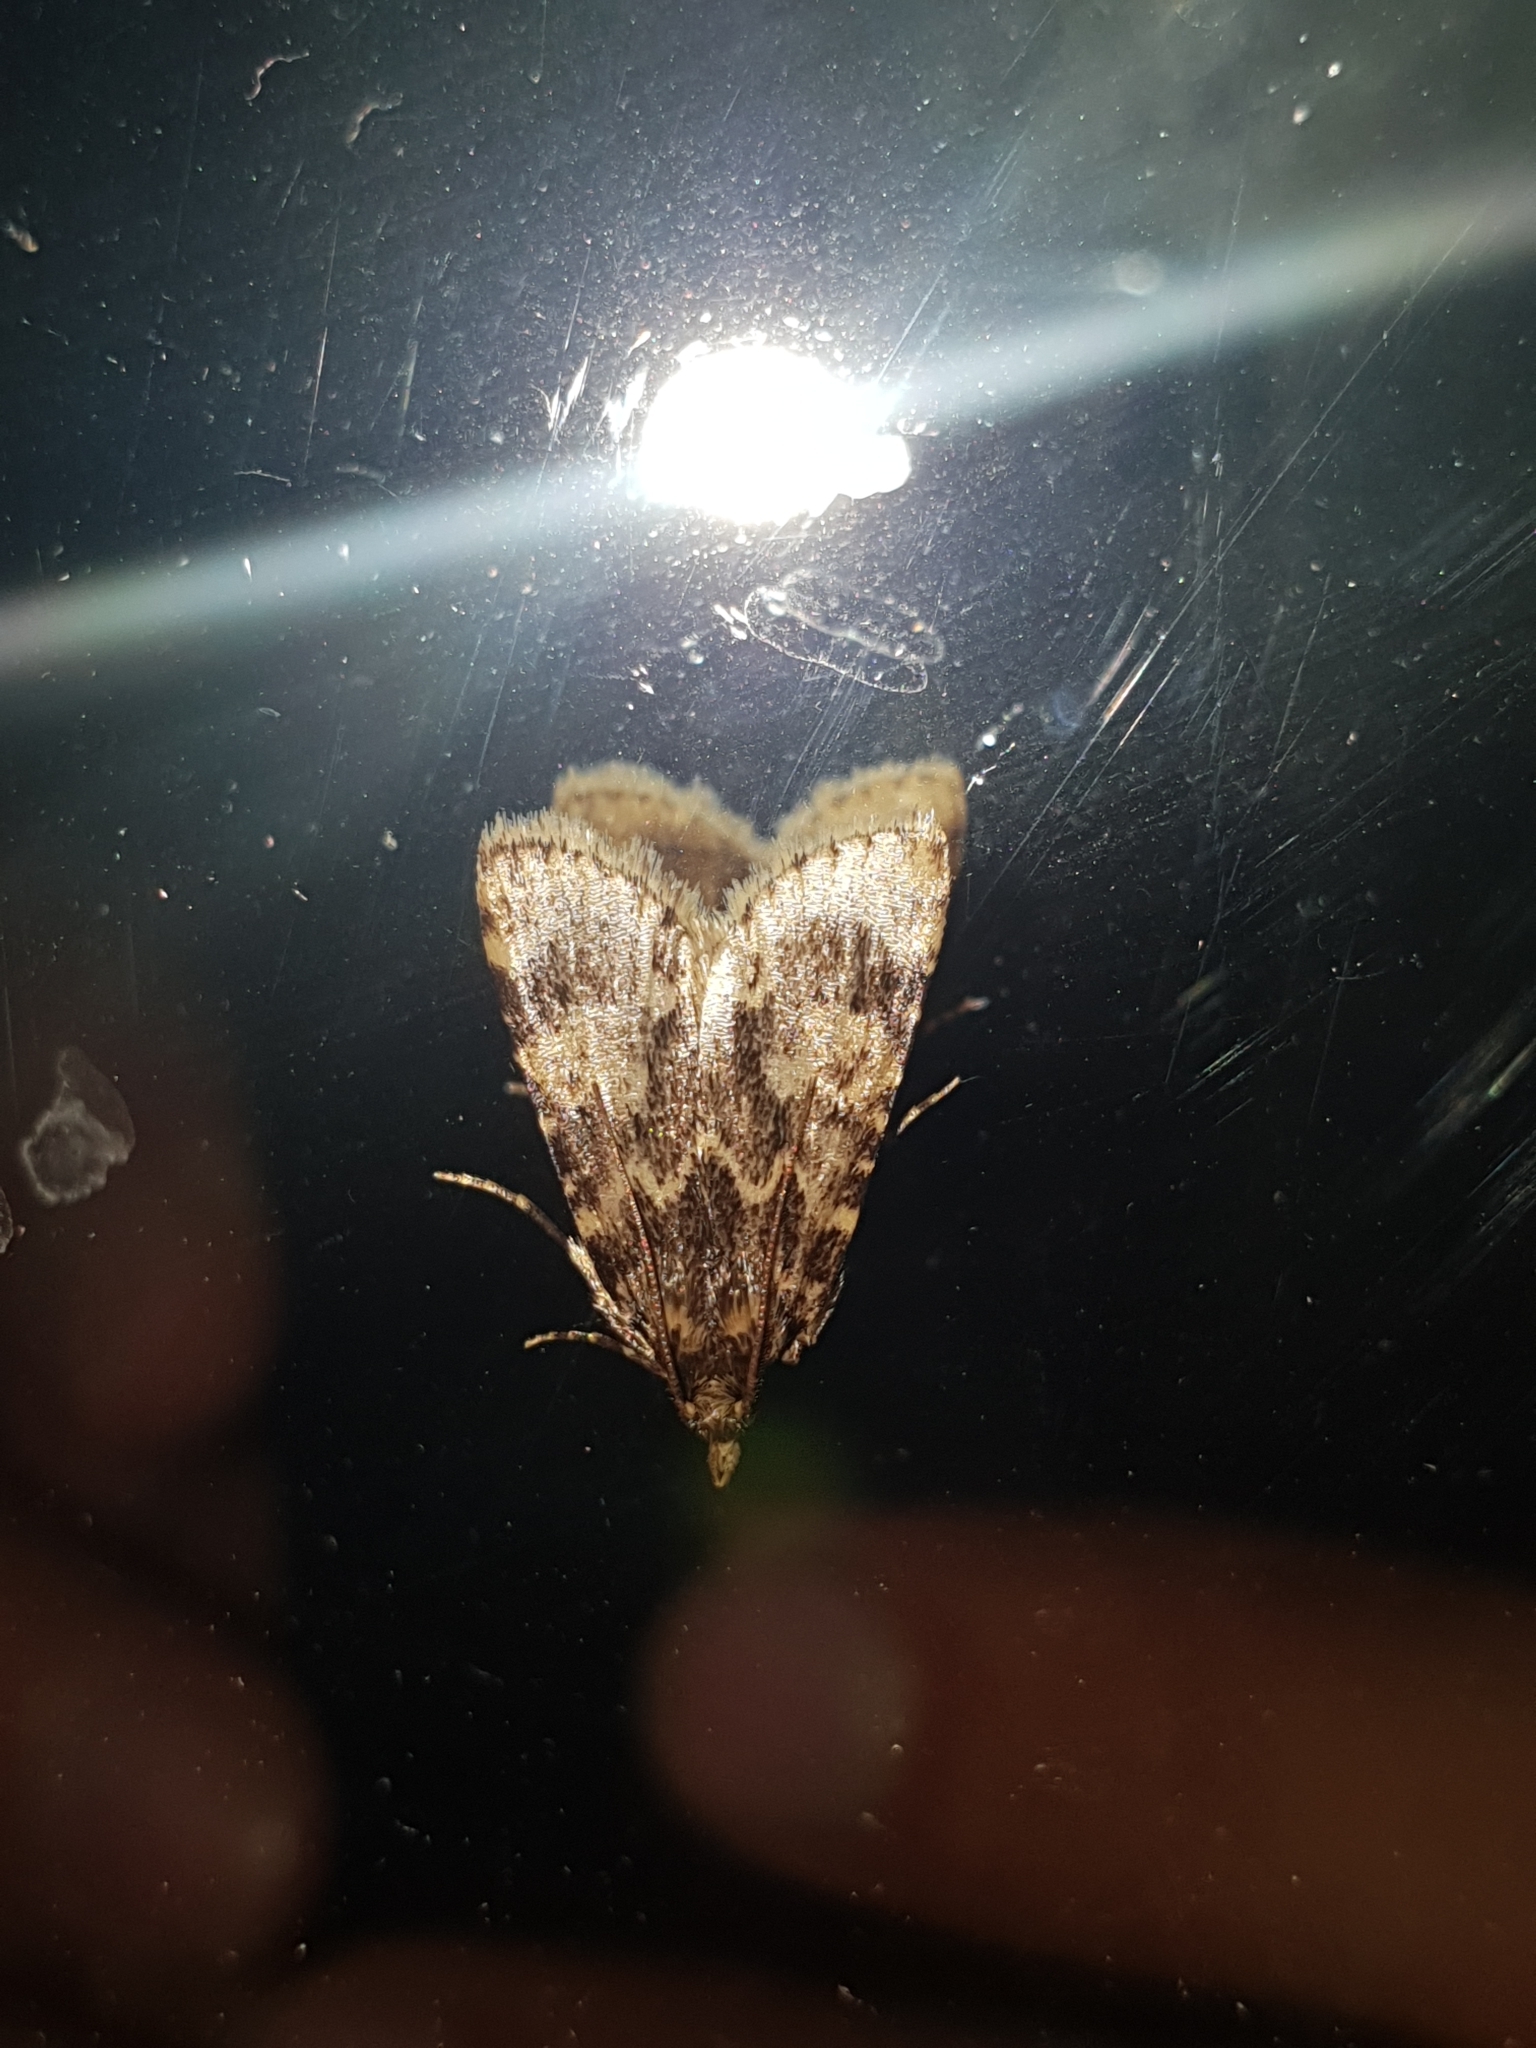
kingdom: Animalia
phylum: Arthropoda
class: Insecta
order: Lepidoptera
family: Pyralidae
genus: Aglossa
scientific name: Aglossa caprealis
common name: Small tabby
